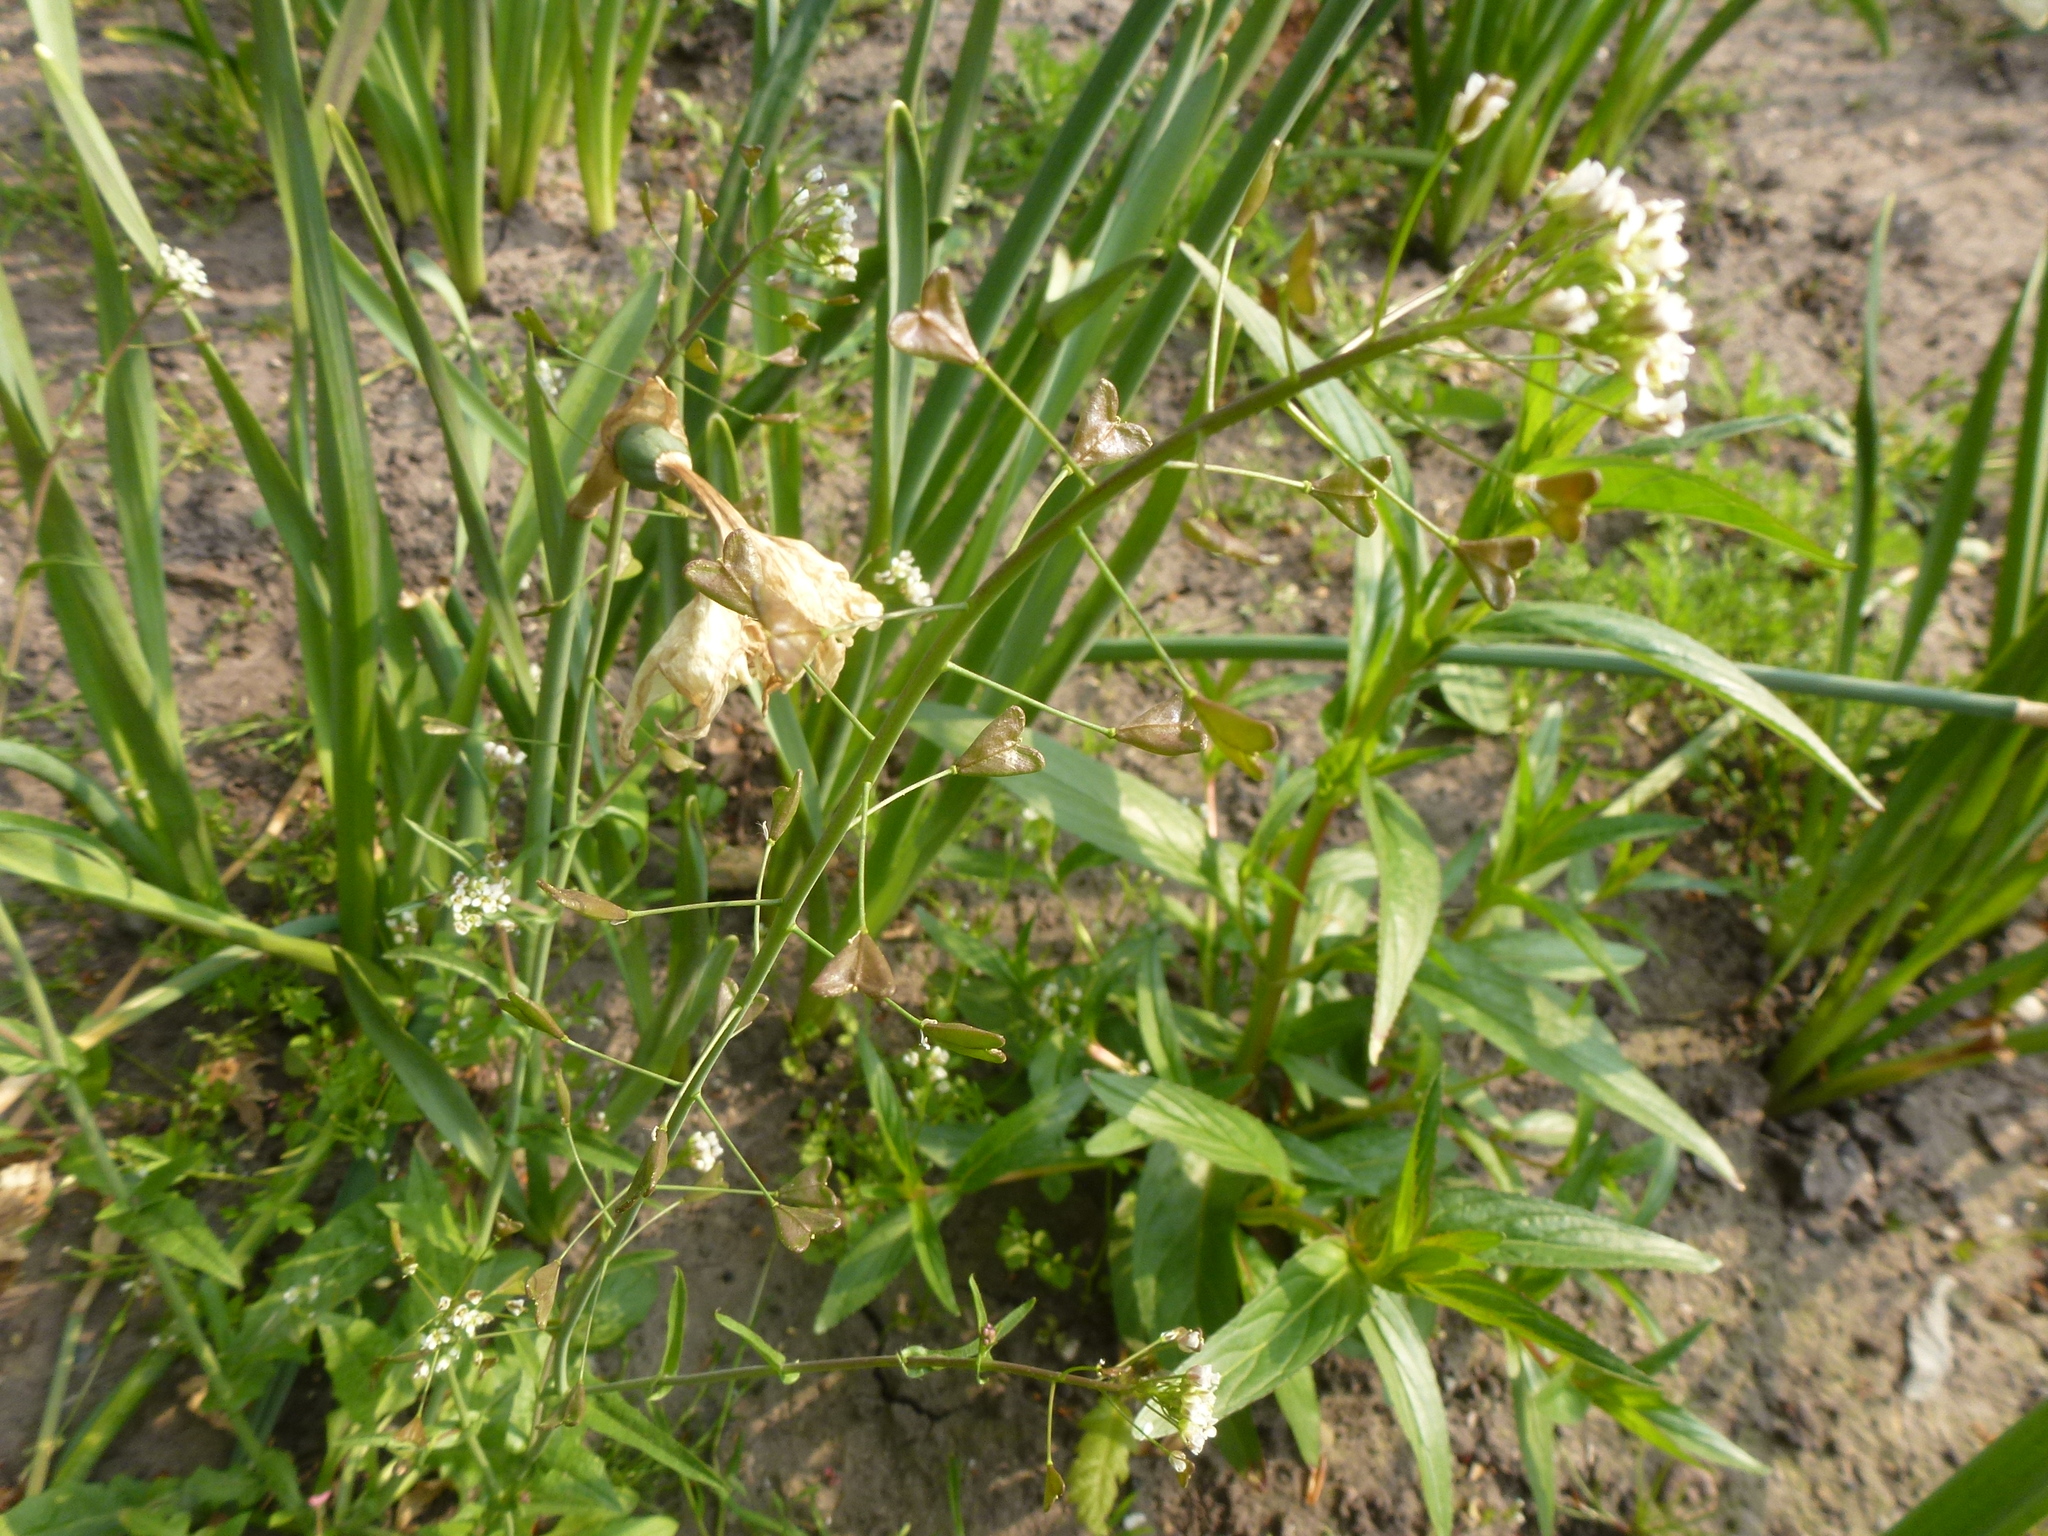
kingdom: Plantae
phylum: Tracheophyta
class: Magnoliopsida
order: Brassicales
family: Brassicaceae
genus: Capsella
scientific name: Capsella bursa-pastoris
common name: Shepherd's purse
